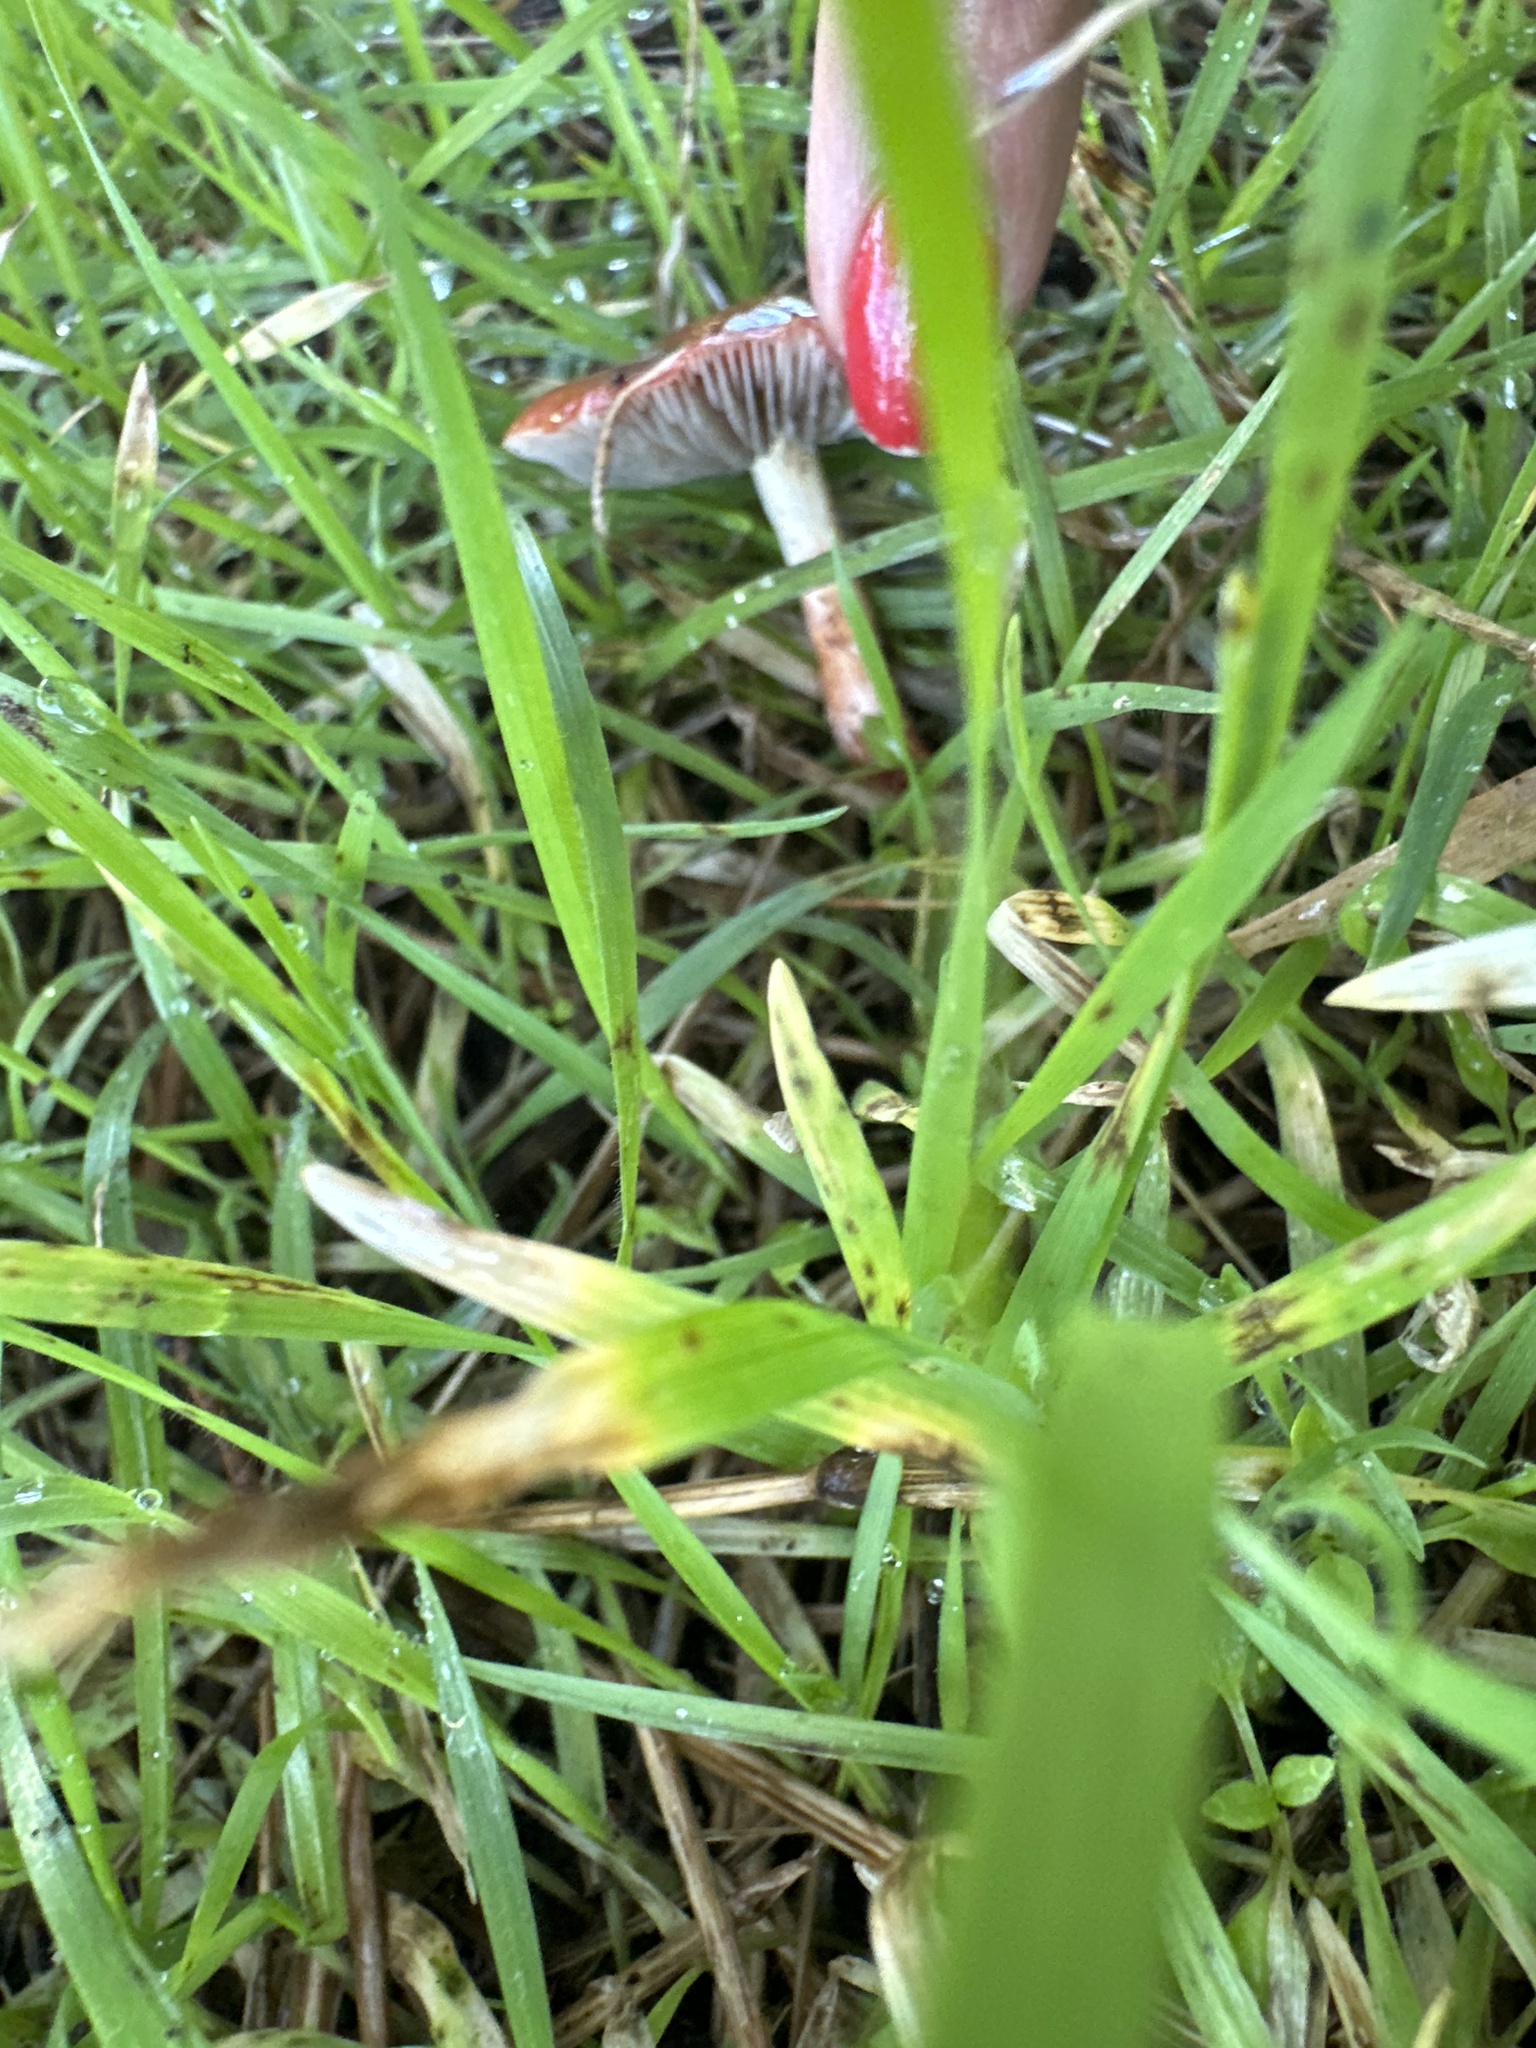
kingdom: Fungi
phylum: Basidiomycota
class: Agaricomycetes
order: Agaricales
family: Strophariaceae
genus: Leratiomyces
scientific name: Leratiomyces ceres
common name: Redlead roundhead
